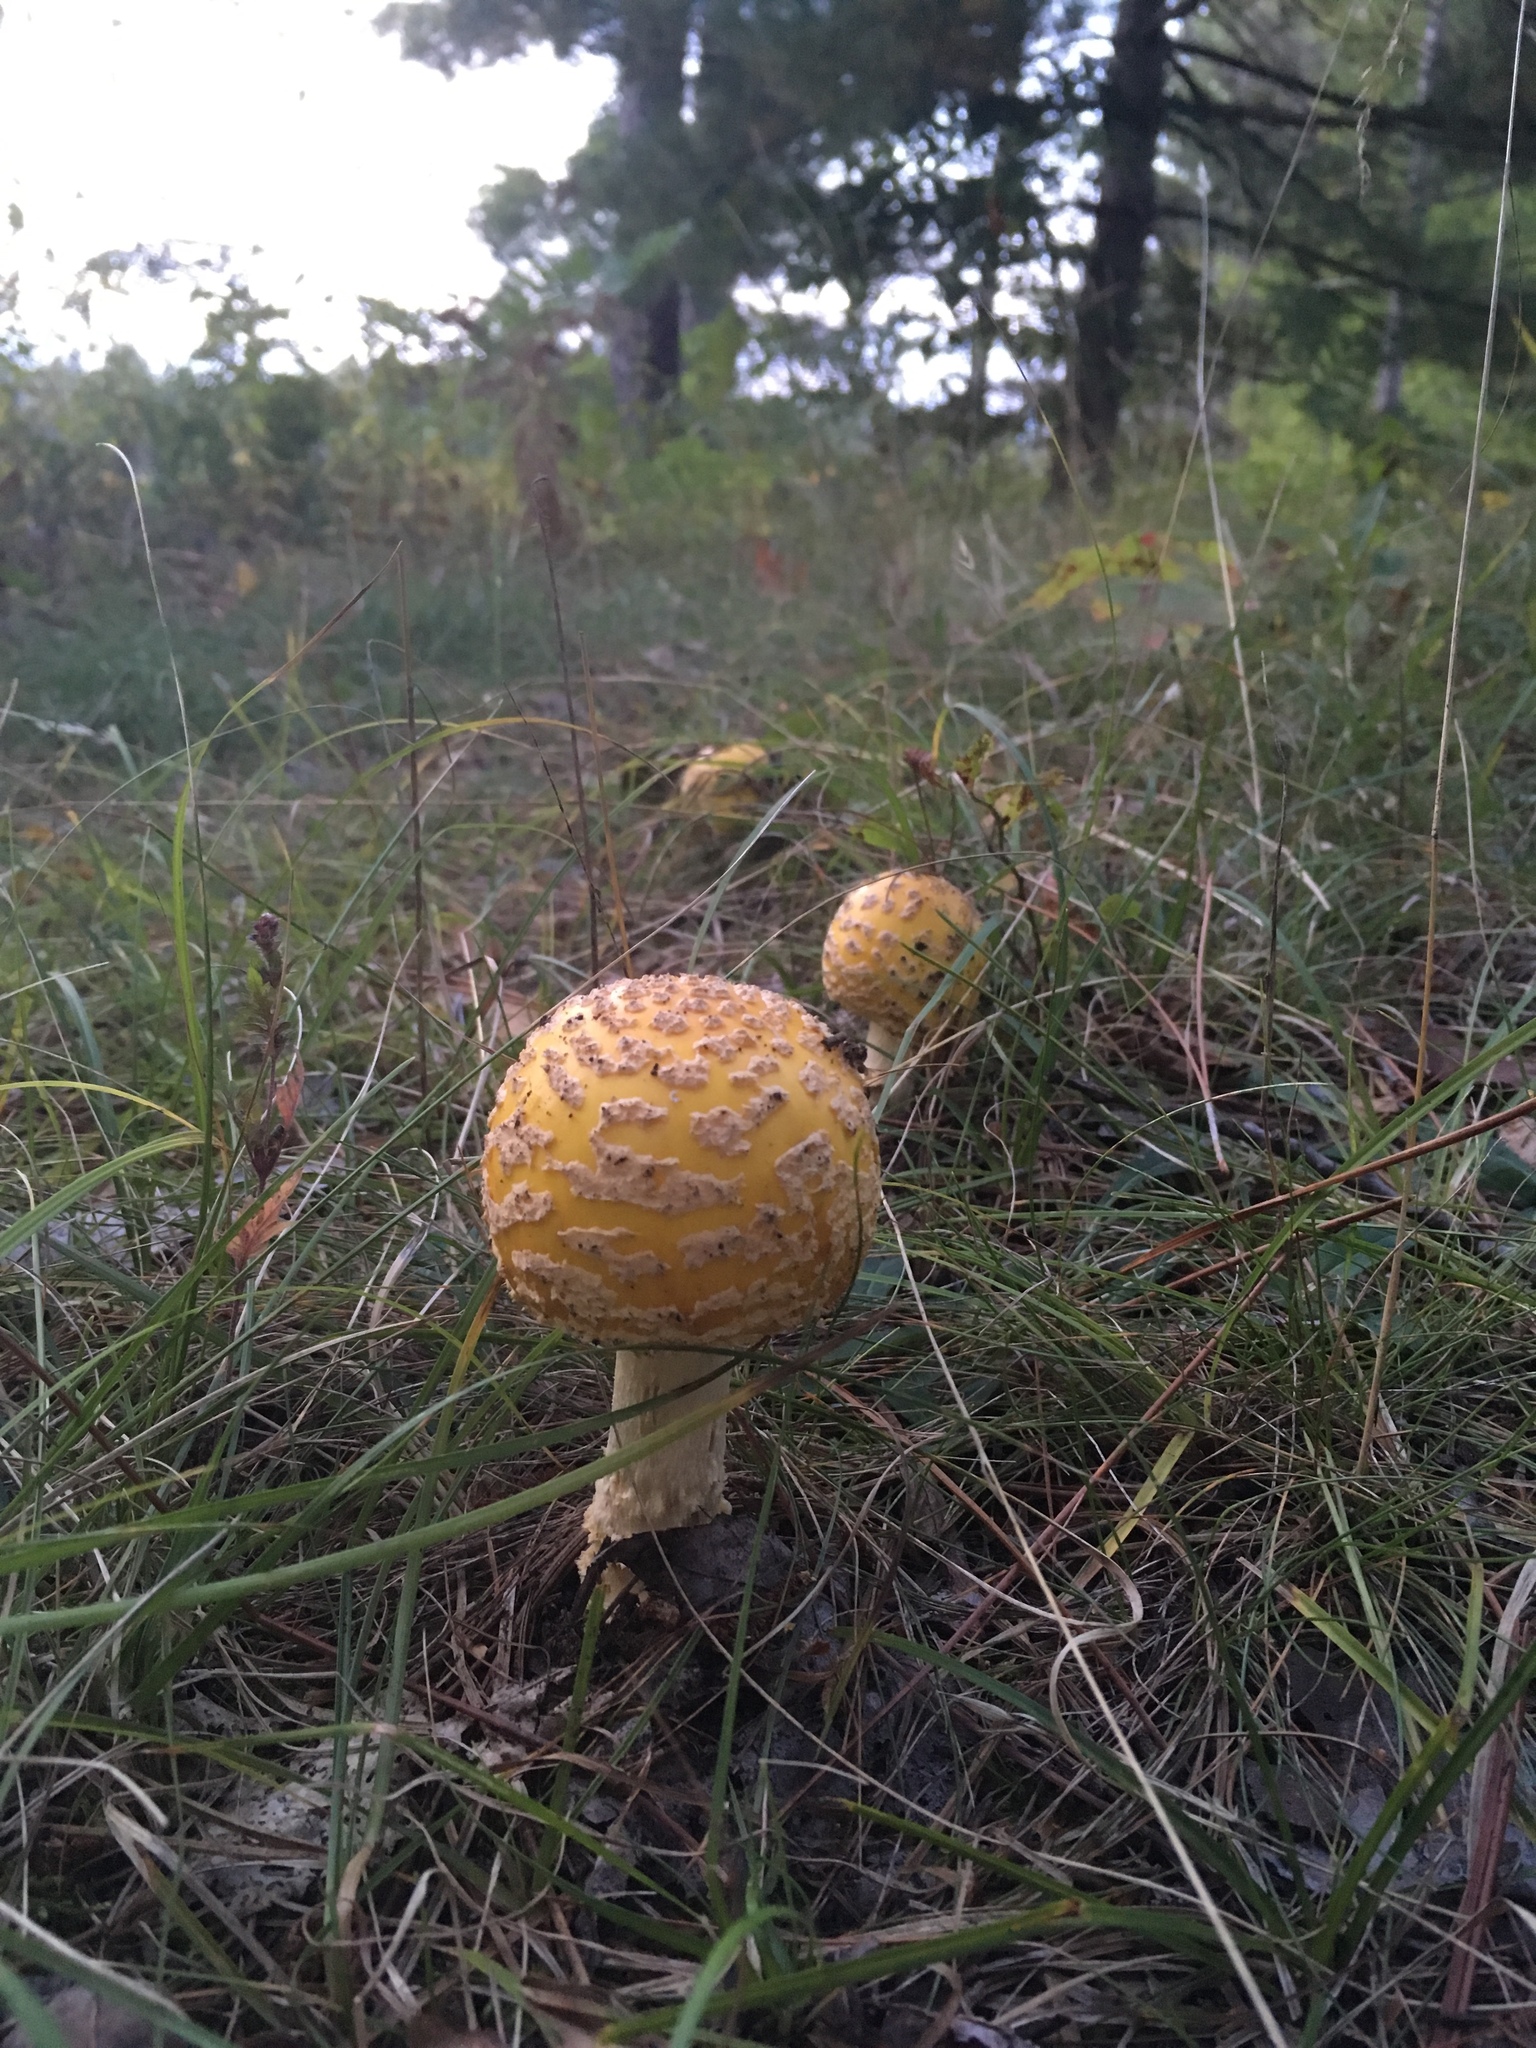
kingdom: Fungi
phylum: Basidiomycota
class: Agaricomycetes
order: Agaricales
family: Amanitaceae
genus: Amanita
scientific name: Amanita muscaria
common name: Fly agaric
